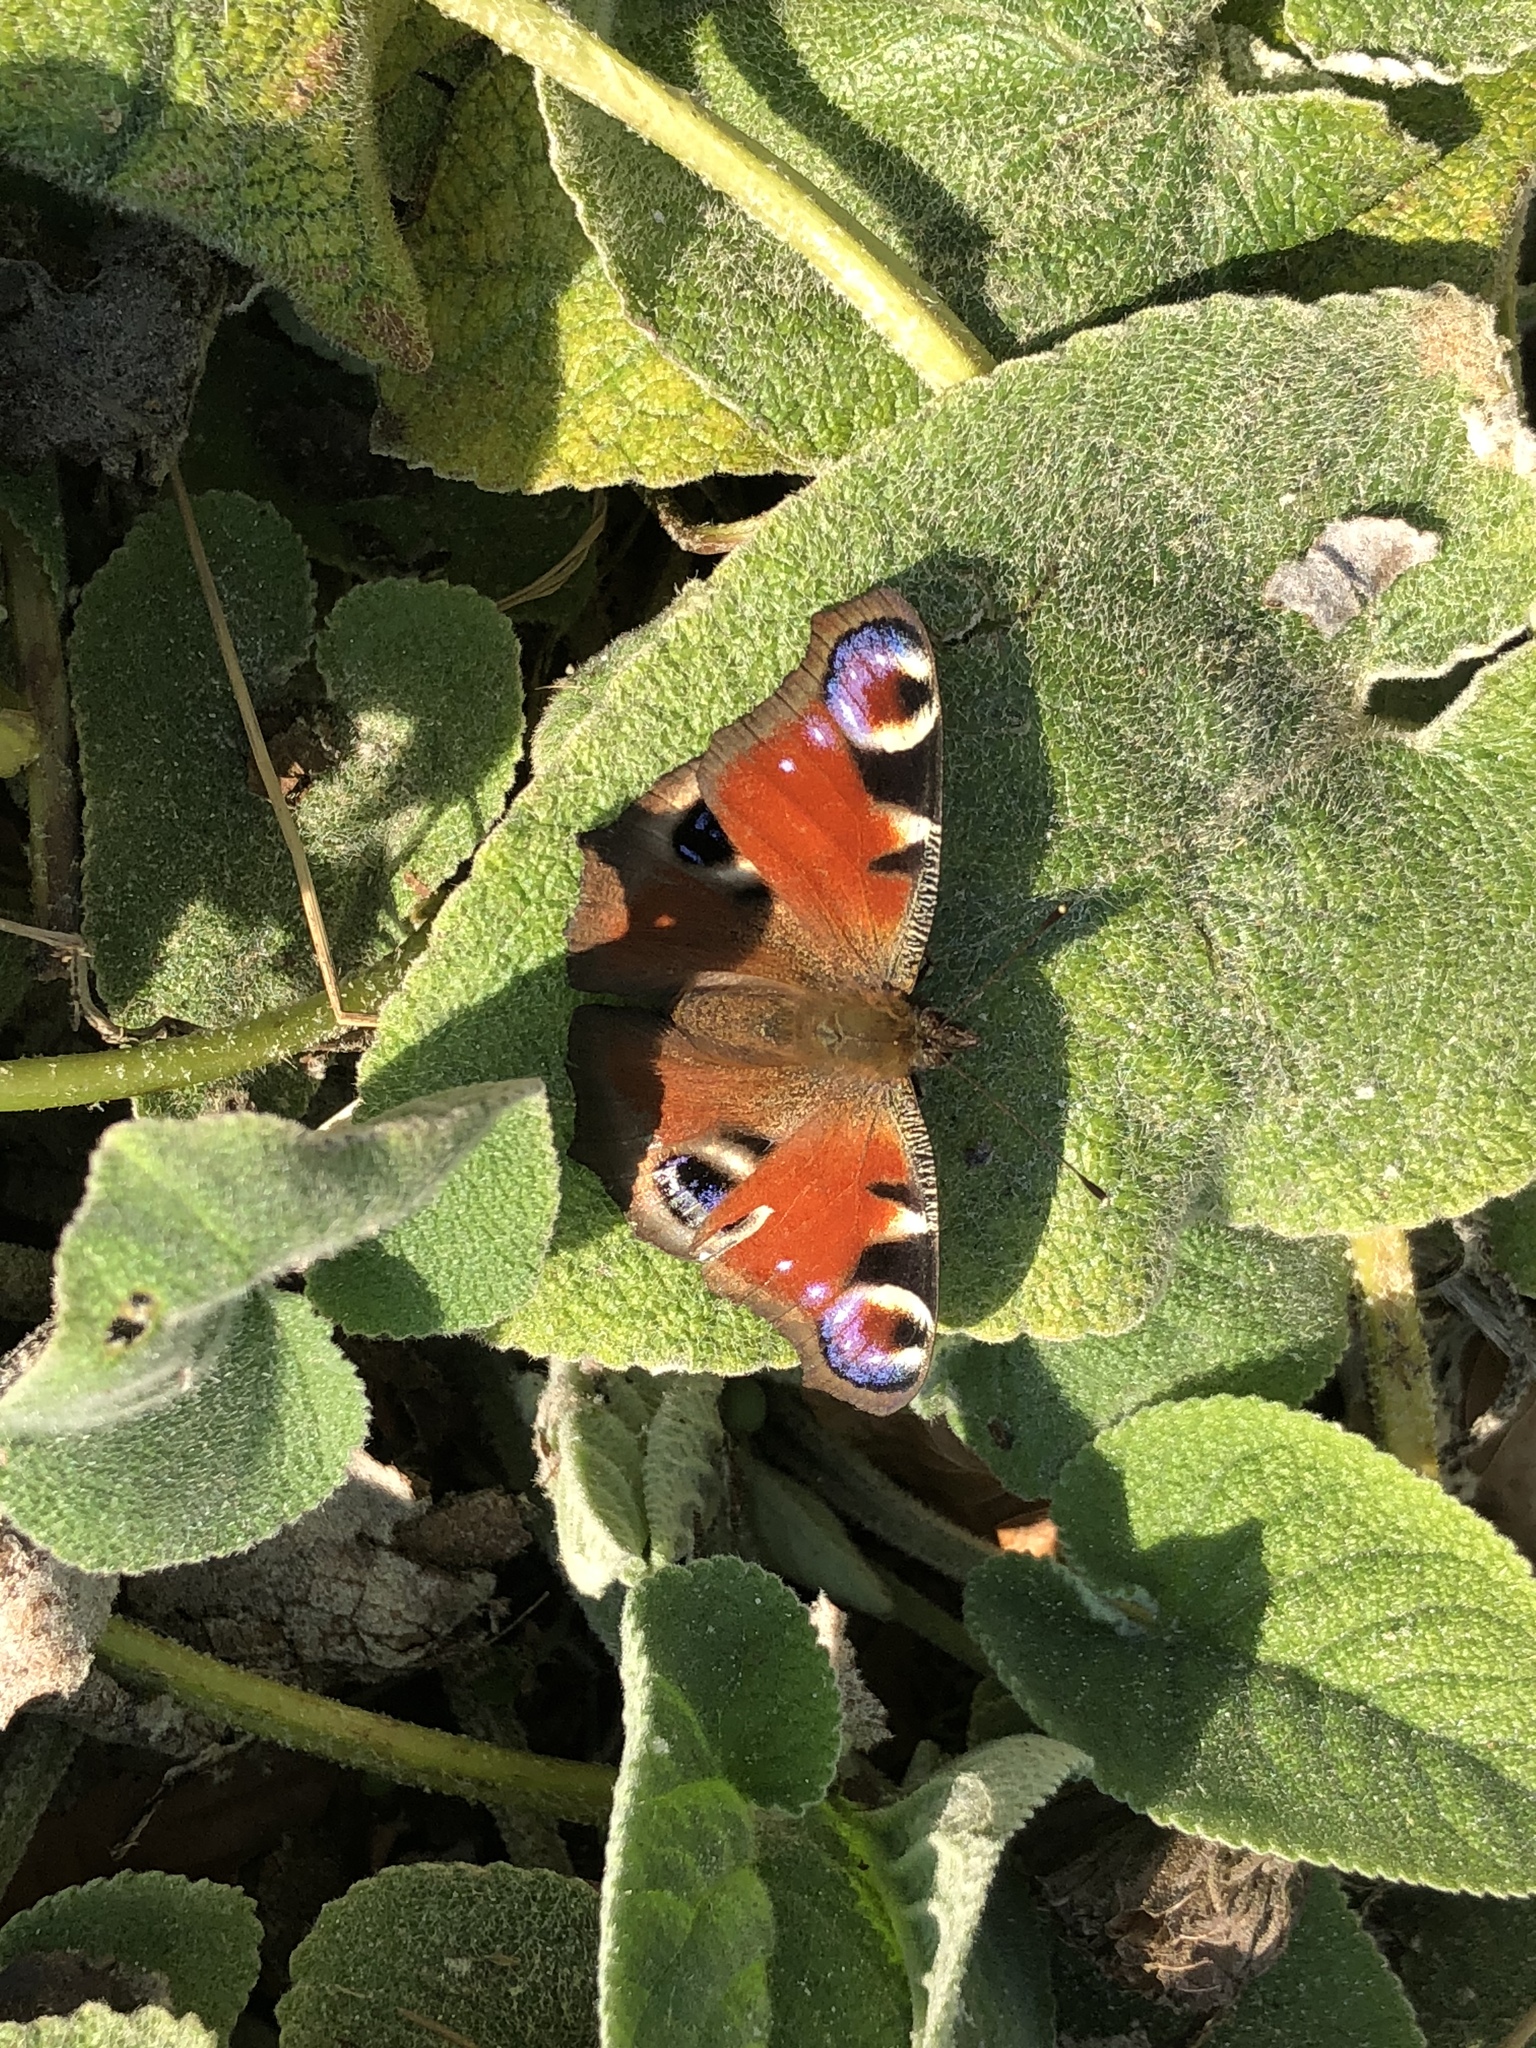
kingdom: Animalia
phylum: Arthropoda
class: Insecta
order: Lepidoptera
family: Nymphalidae
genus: Aglais
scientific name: Aglais io
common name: Peacock
